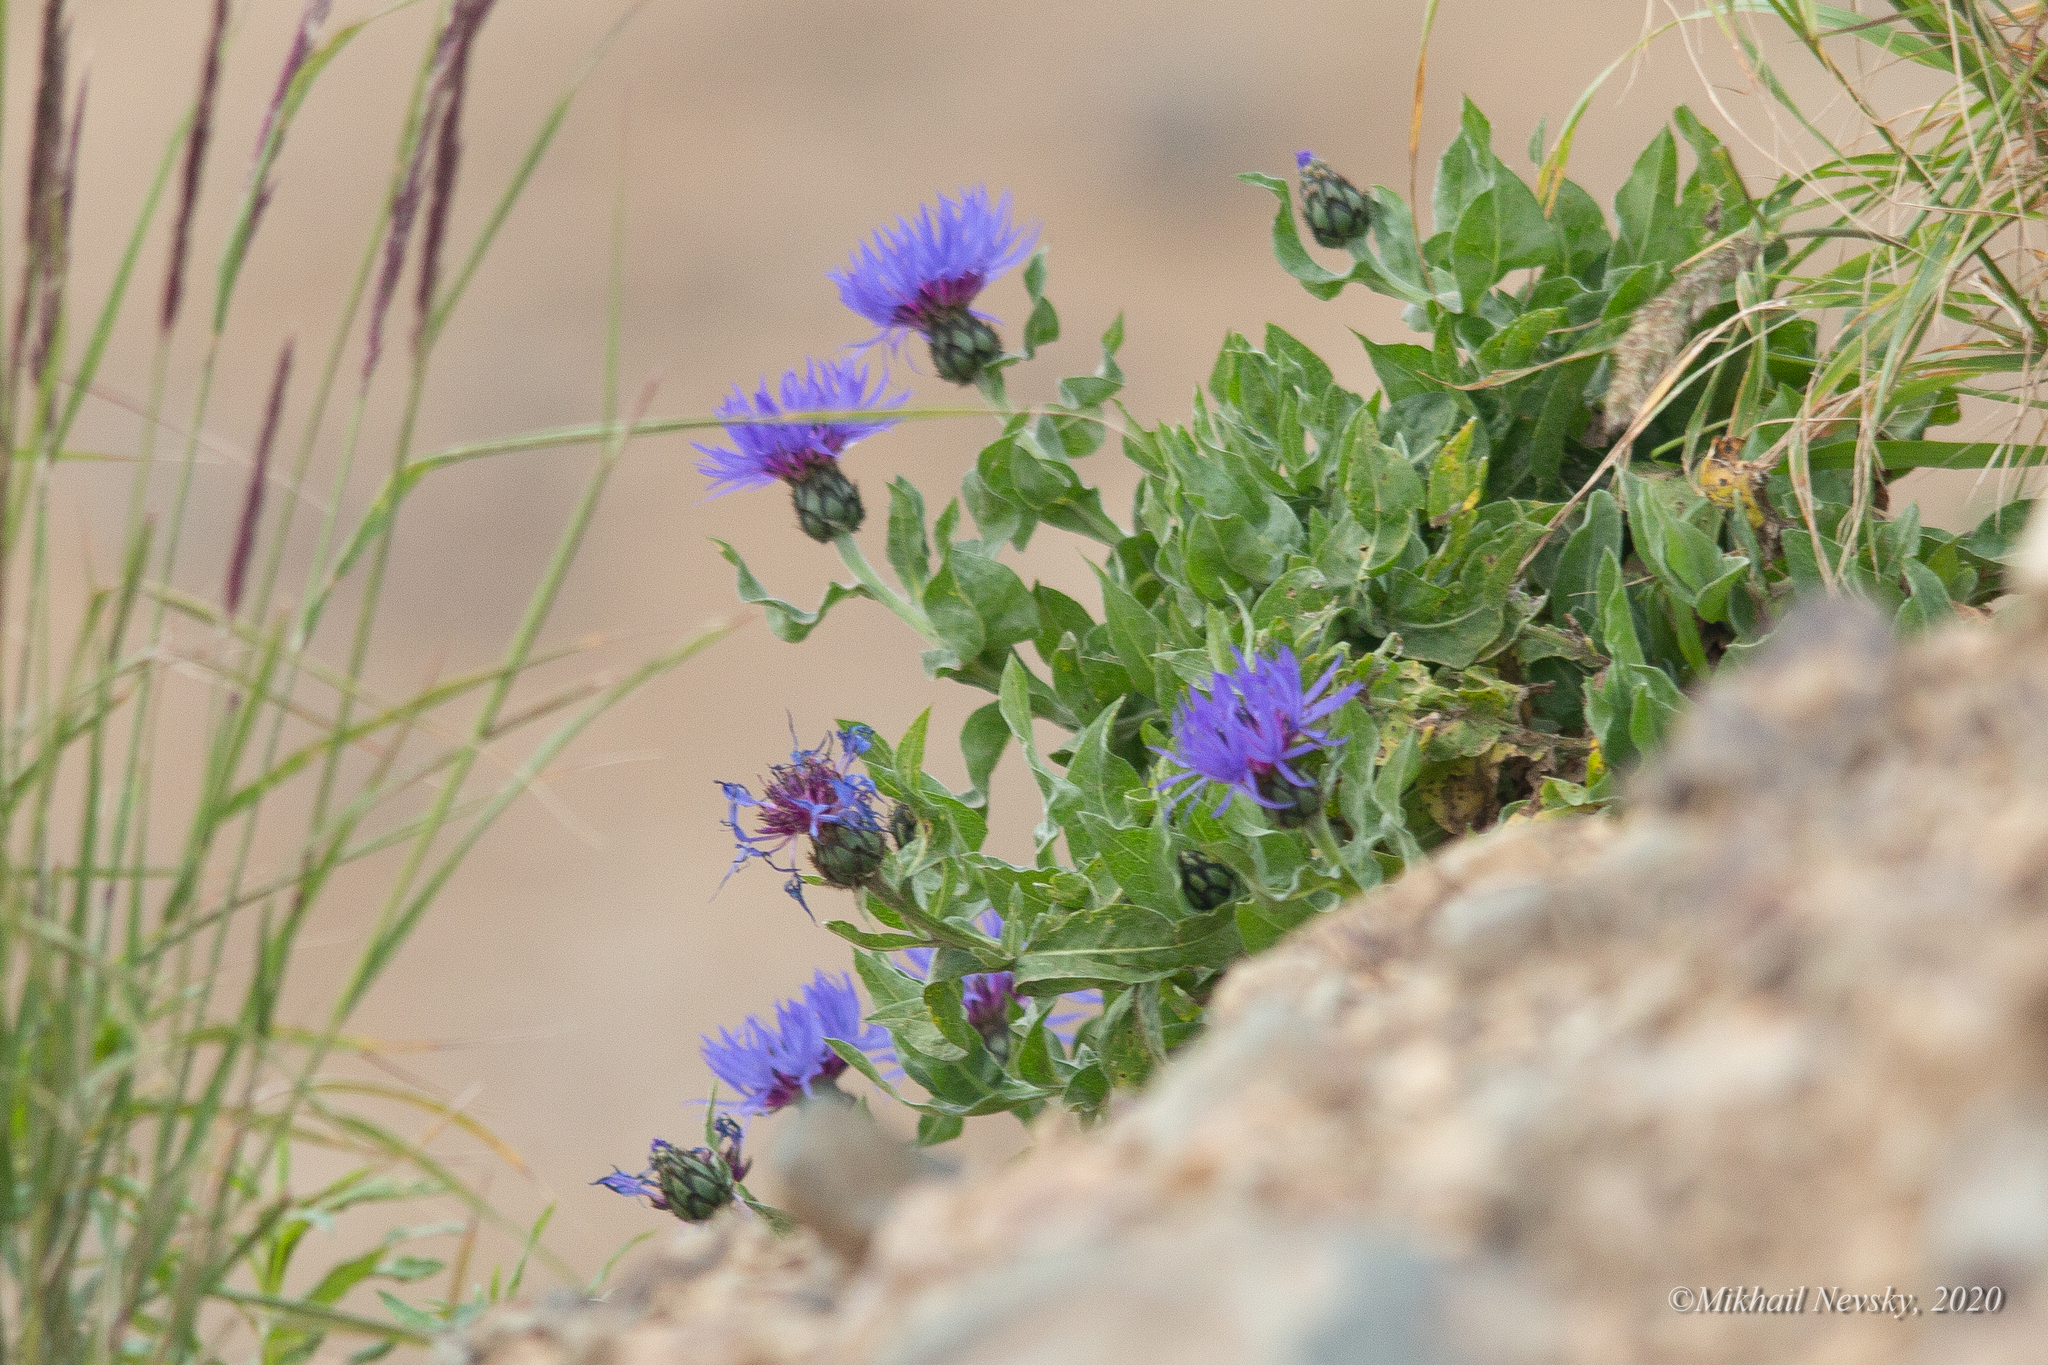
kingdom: Plantae
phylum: Tracheophyta
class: Magnoliopsida
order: Asterales
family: Asteraceae
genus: Centaurea
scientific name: Centaurea nigrofimbria
